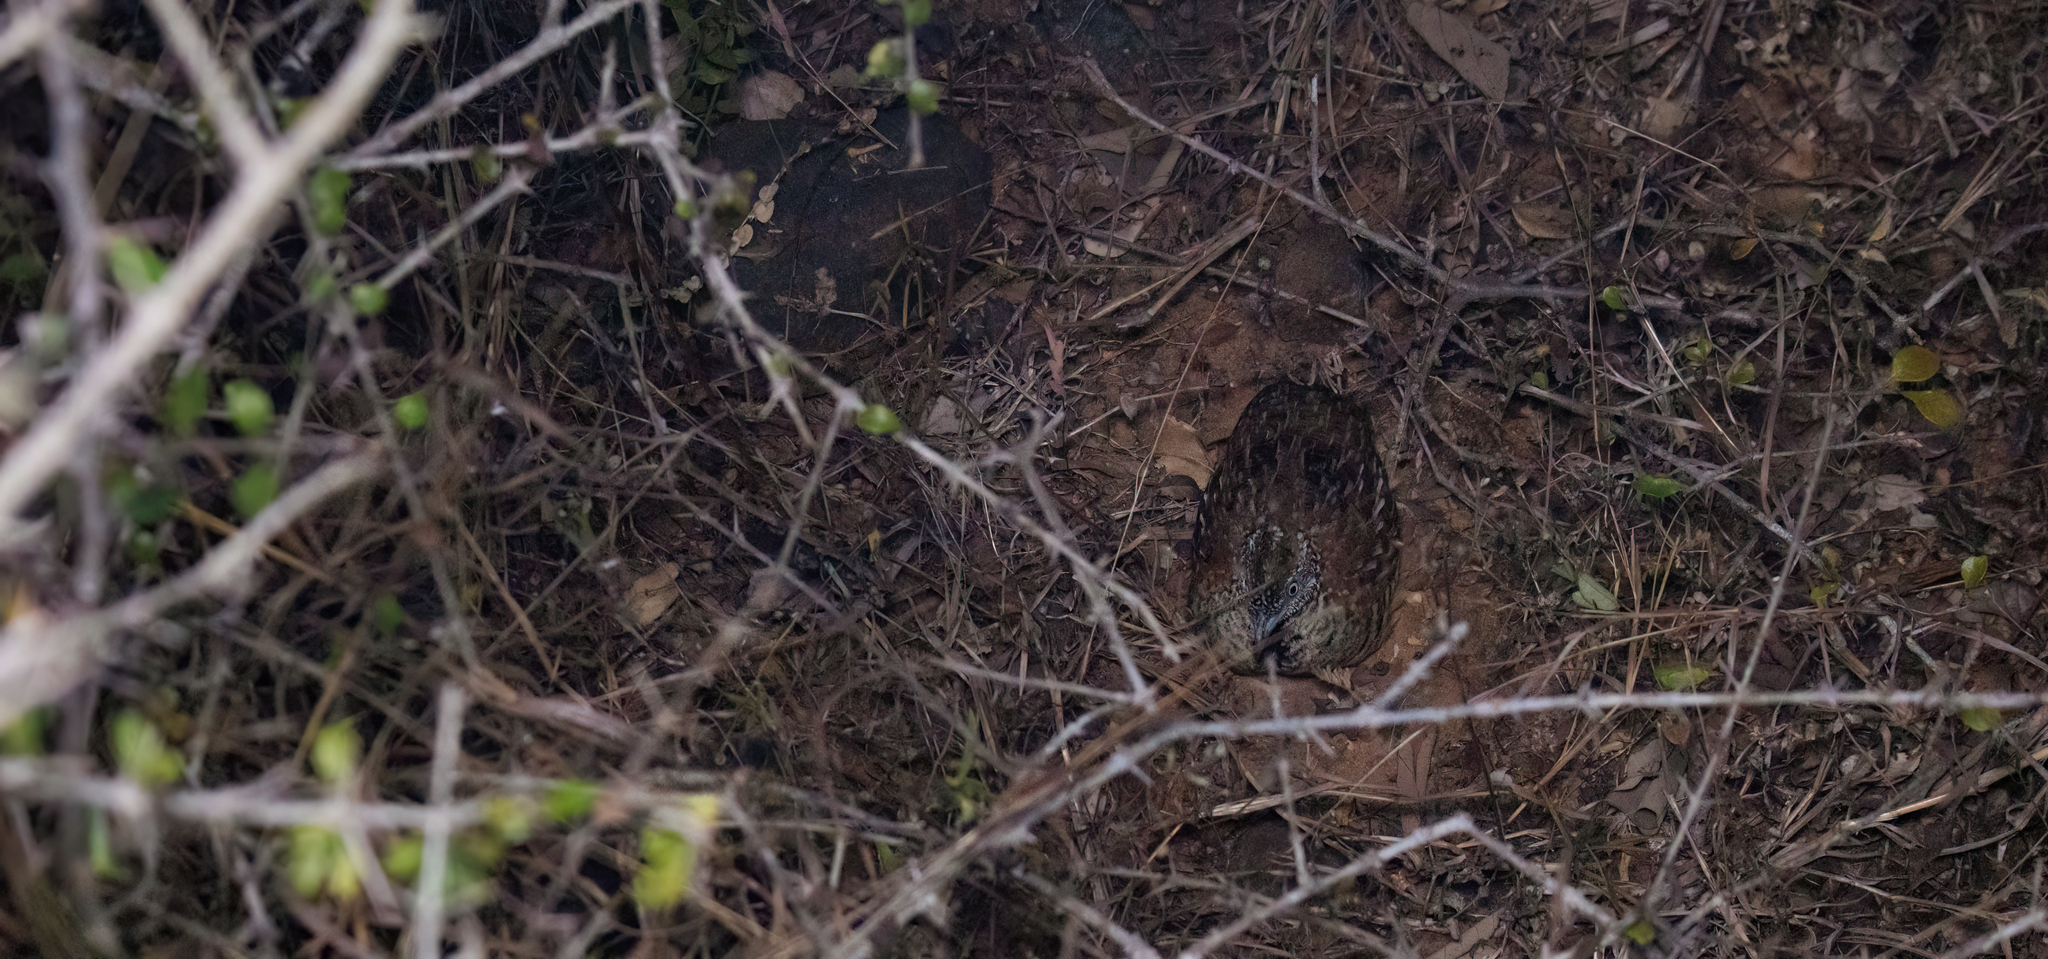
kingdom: Animalia
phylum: Chordata
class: Aves
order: Charadriiformes
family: Turnicidae
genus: Turnix
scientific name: Turnix suscitator
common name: Barred buttonquail
